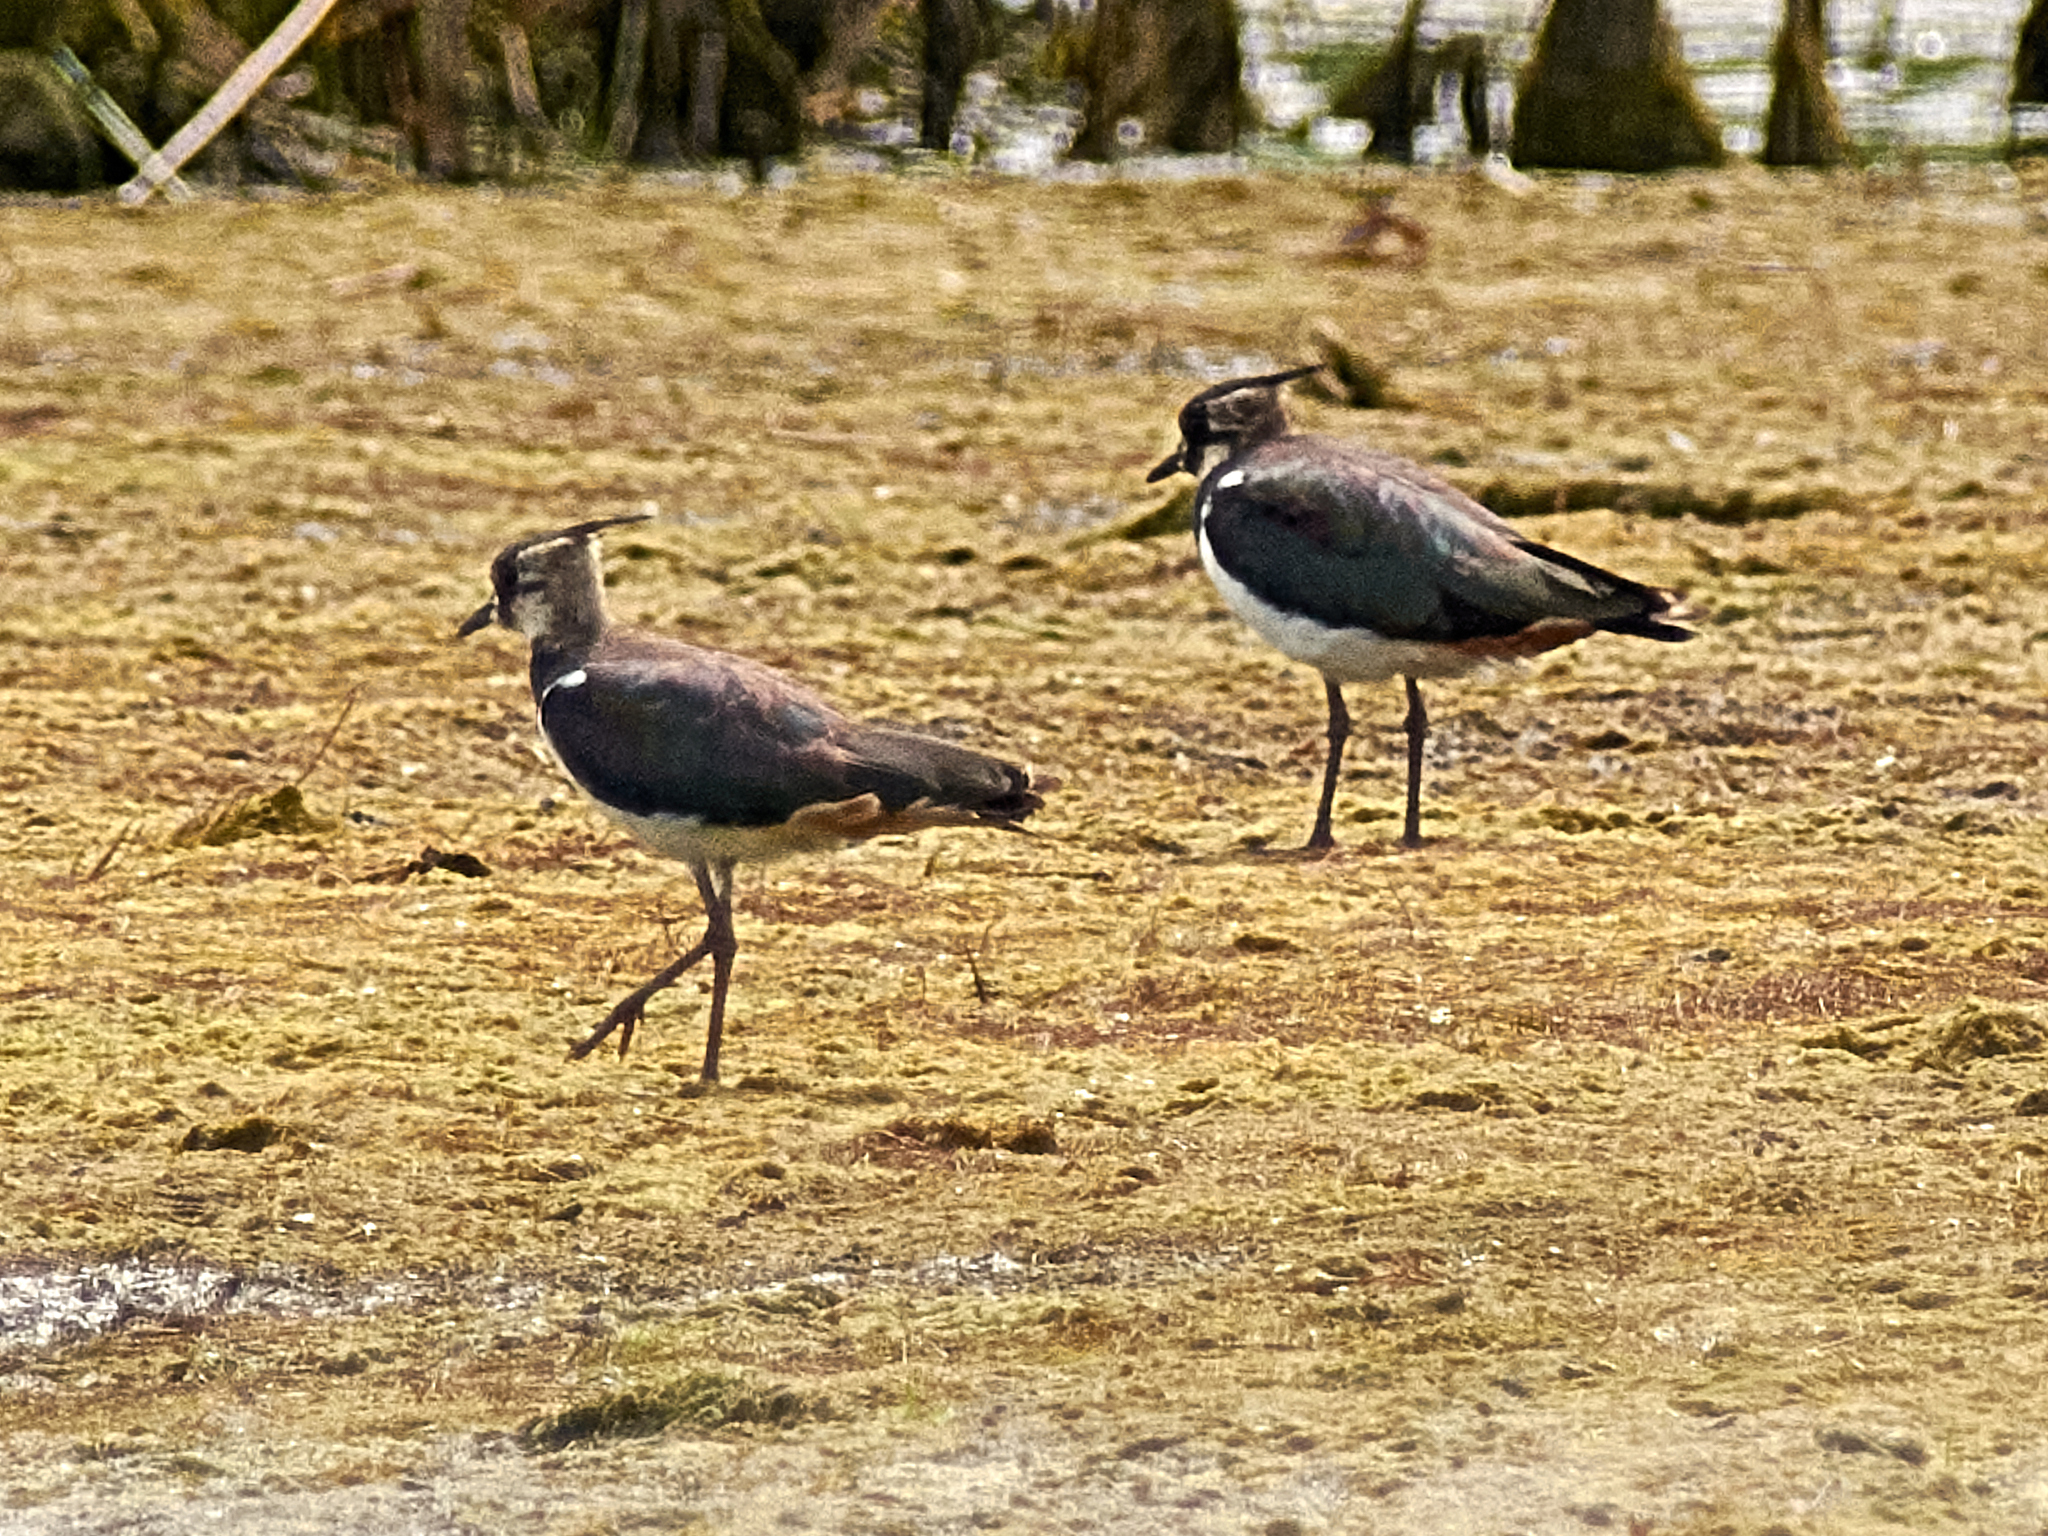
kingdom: Animalia
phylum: Chordata
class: Aves
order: Charadriiformes
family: Charadriidae
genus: Vanellus
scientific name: Vanellus vanellus
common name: Northern lapwing
